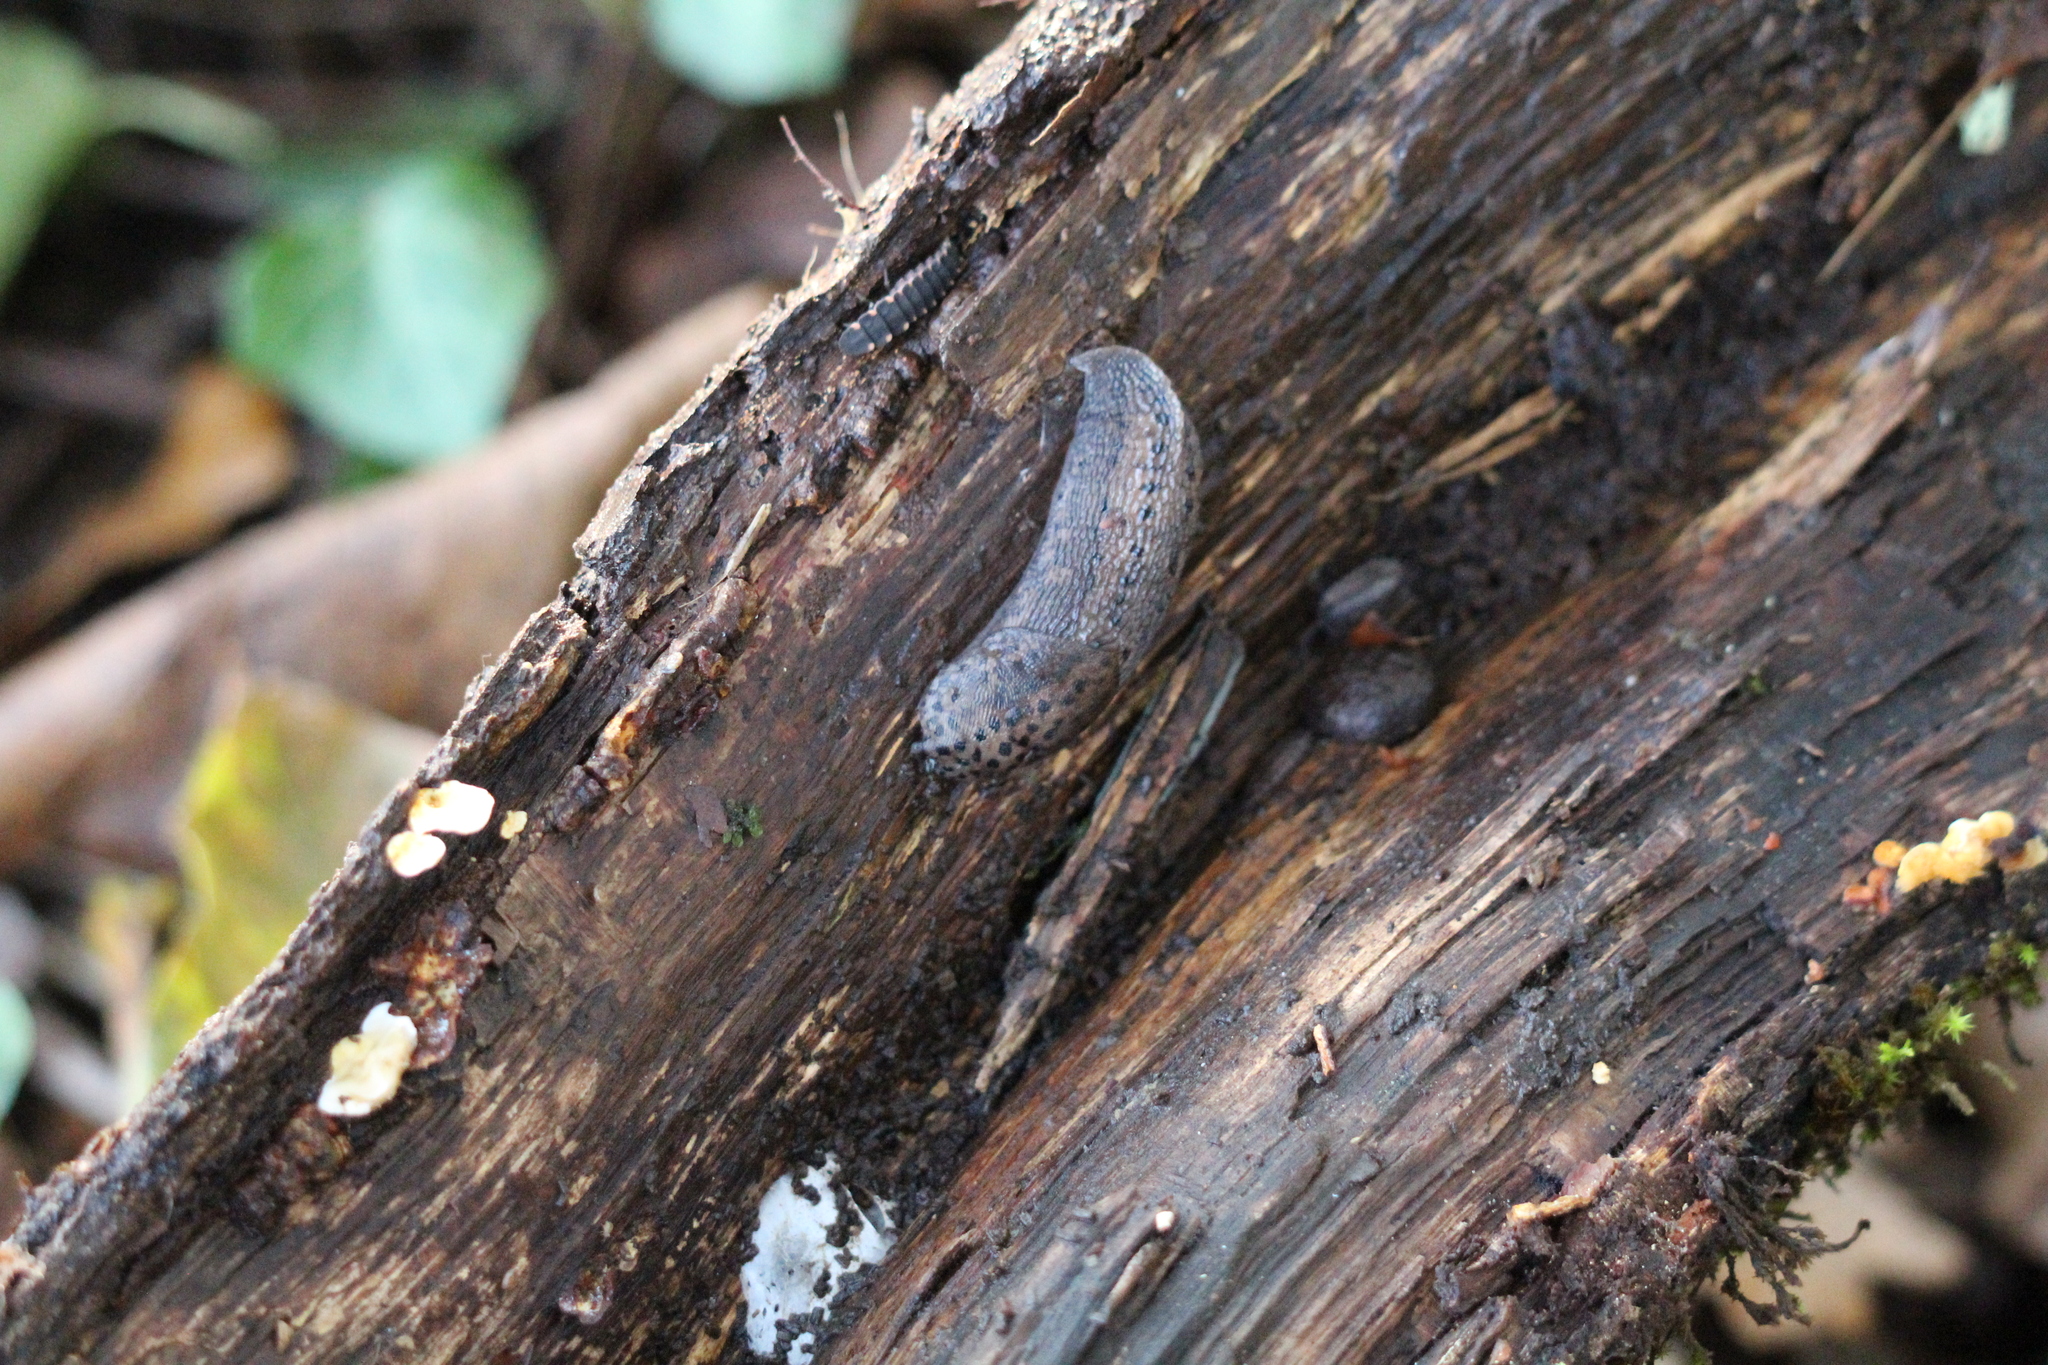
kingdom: Animalia
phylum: Mollusca
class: Gastropoda
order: Stylommatophora
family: Limacidae
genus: Limax
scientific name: Limax maximus
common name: Great grey slug
